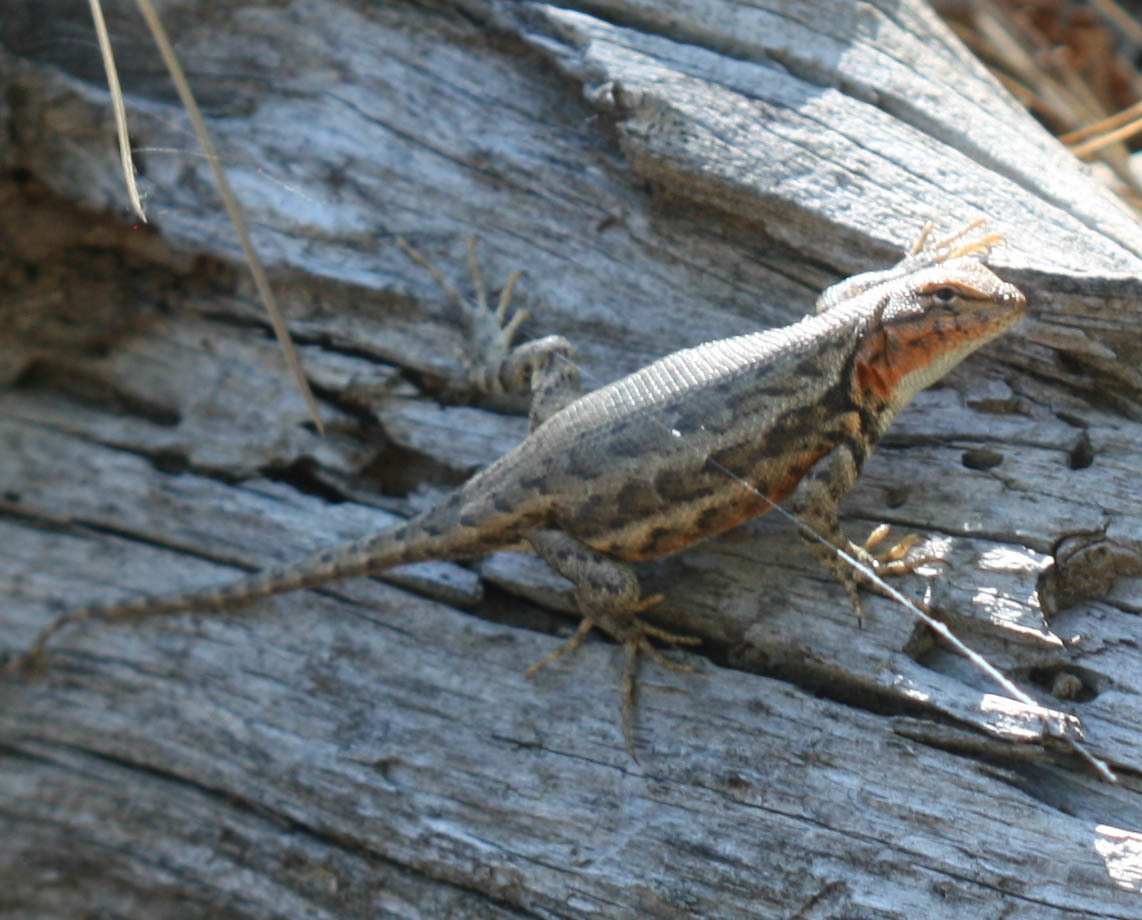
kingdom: Animalia
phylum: Chordata
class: Squamata
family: Phrynosomatidae
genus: Sceloporus
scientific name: Sceloporus graciosus
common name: Sagebrush lizard
